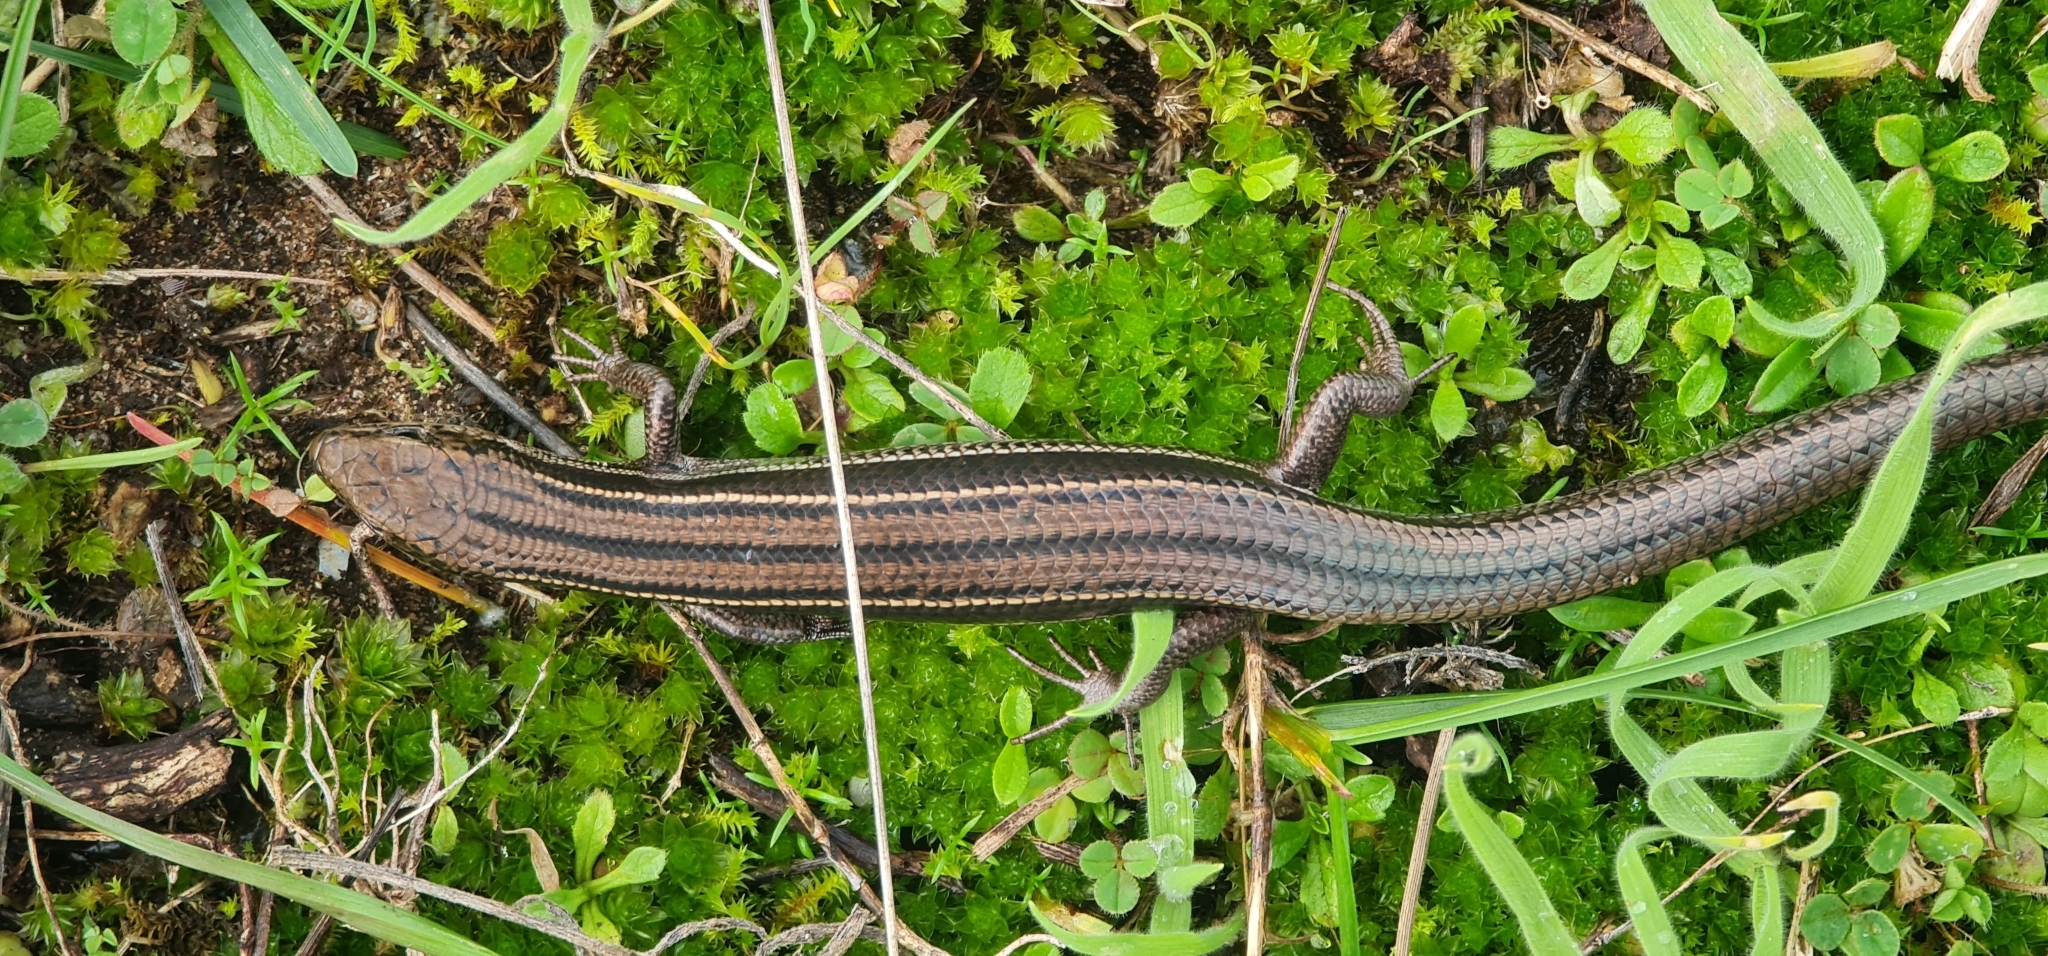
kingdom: Animalia
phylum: Chordata
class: Squamata
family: Scincidae
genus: Acritoscincus
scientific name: Acritoscincus duperreyi
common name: Bold-striped cool-skink
